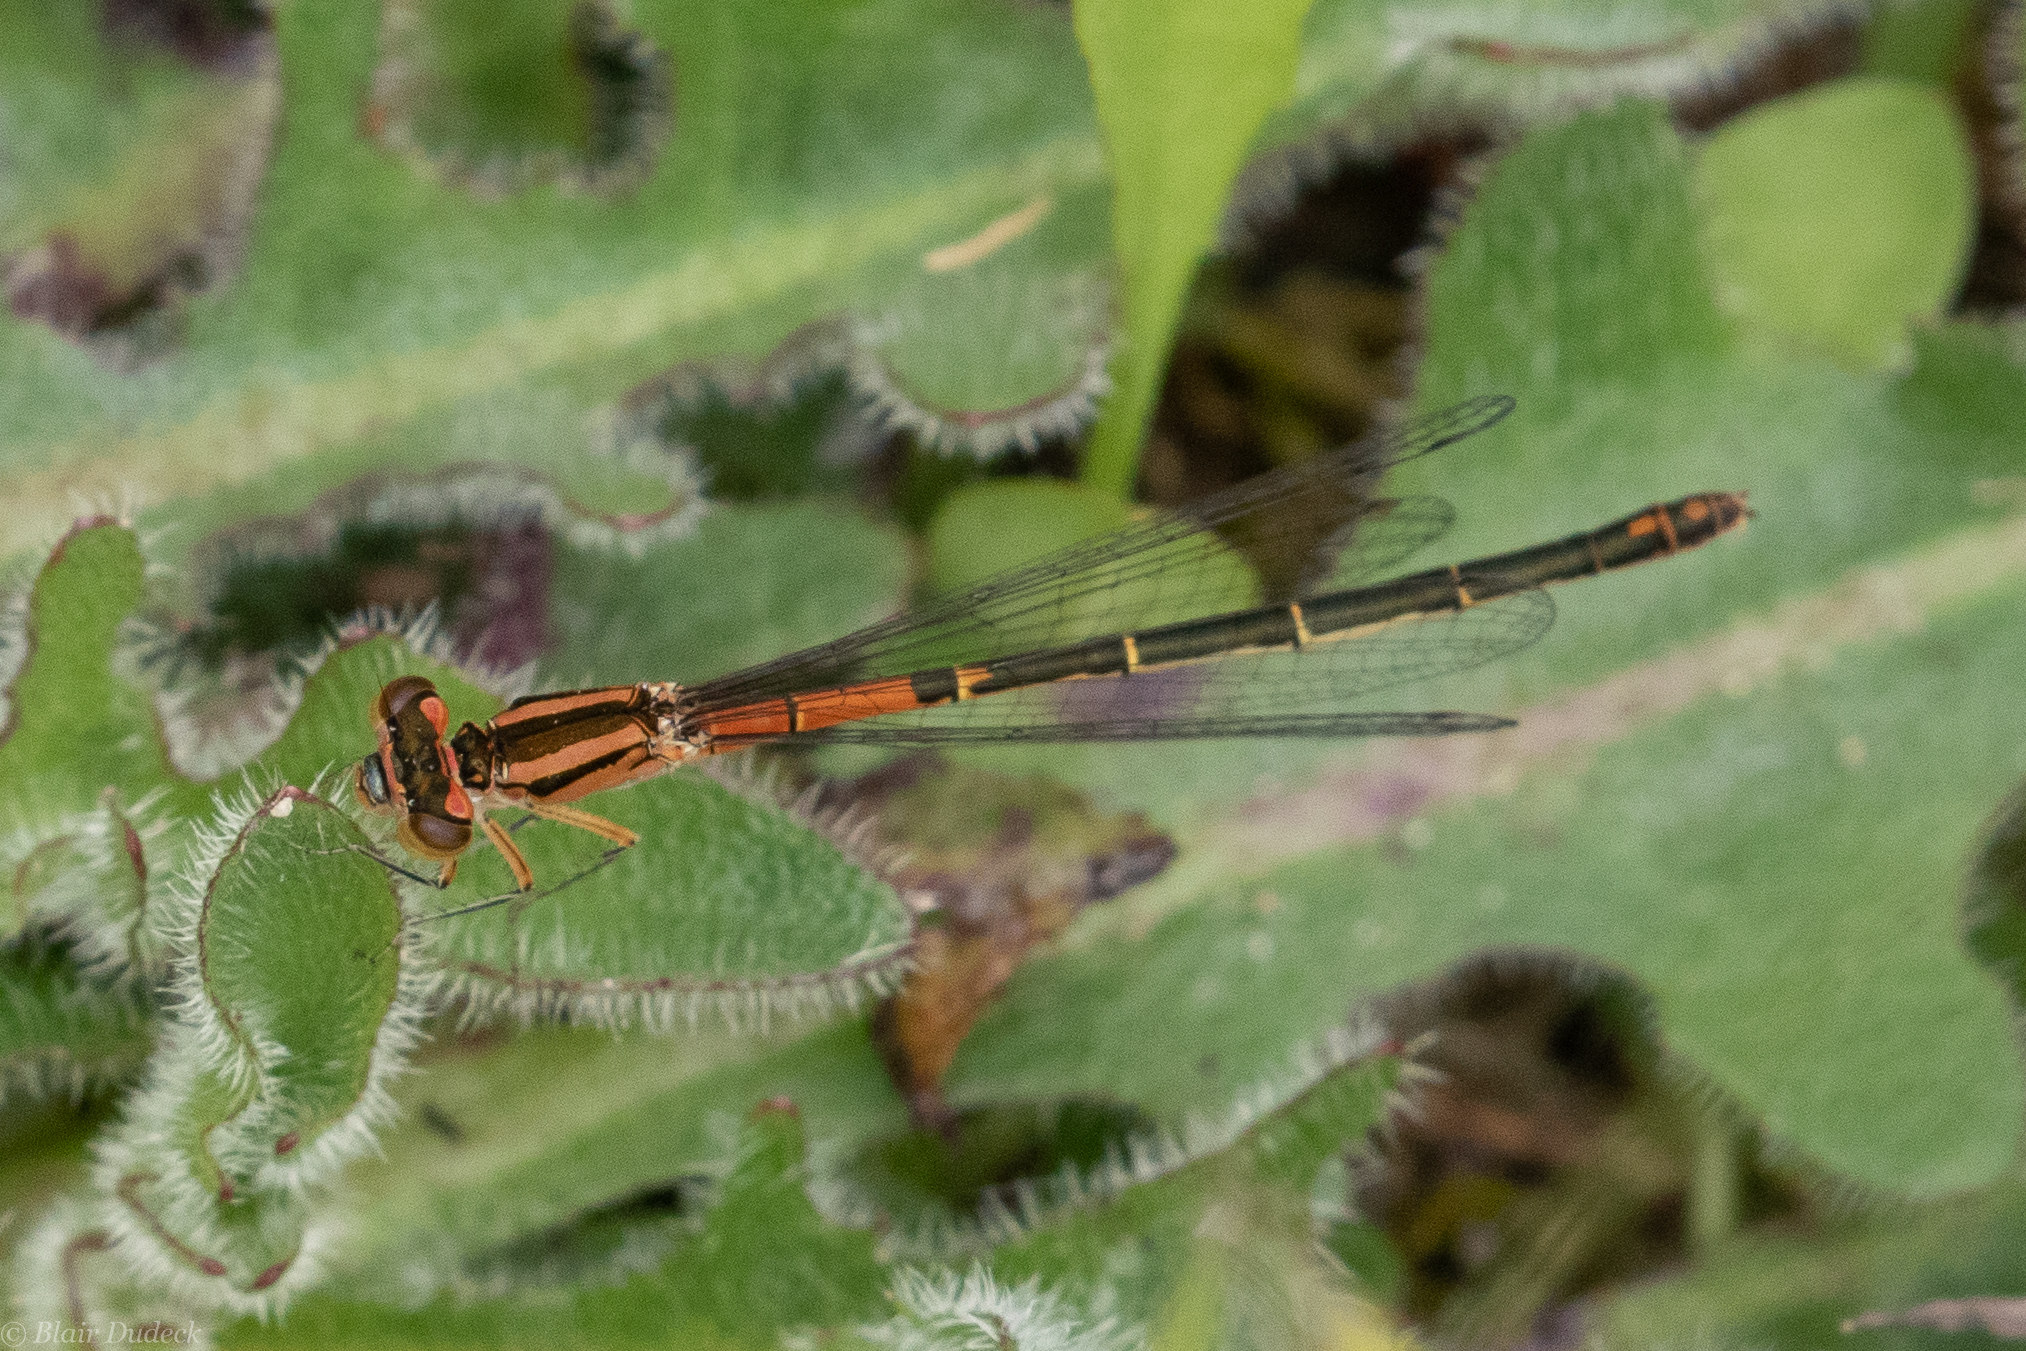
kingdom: Animalia
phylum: Arthropoda
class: Insecta
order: Odonata
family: Coenagrionidae
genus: Ischnura
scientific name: Ischnura perparva
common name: Western forktail
